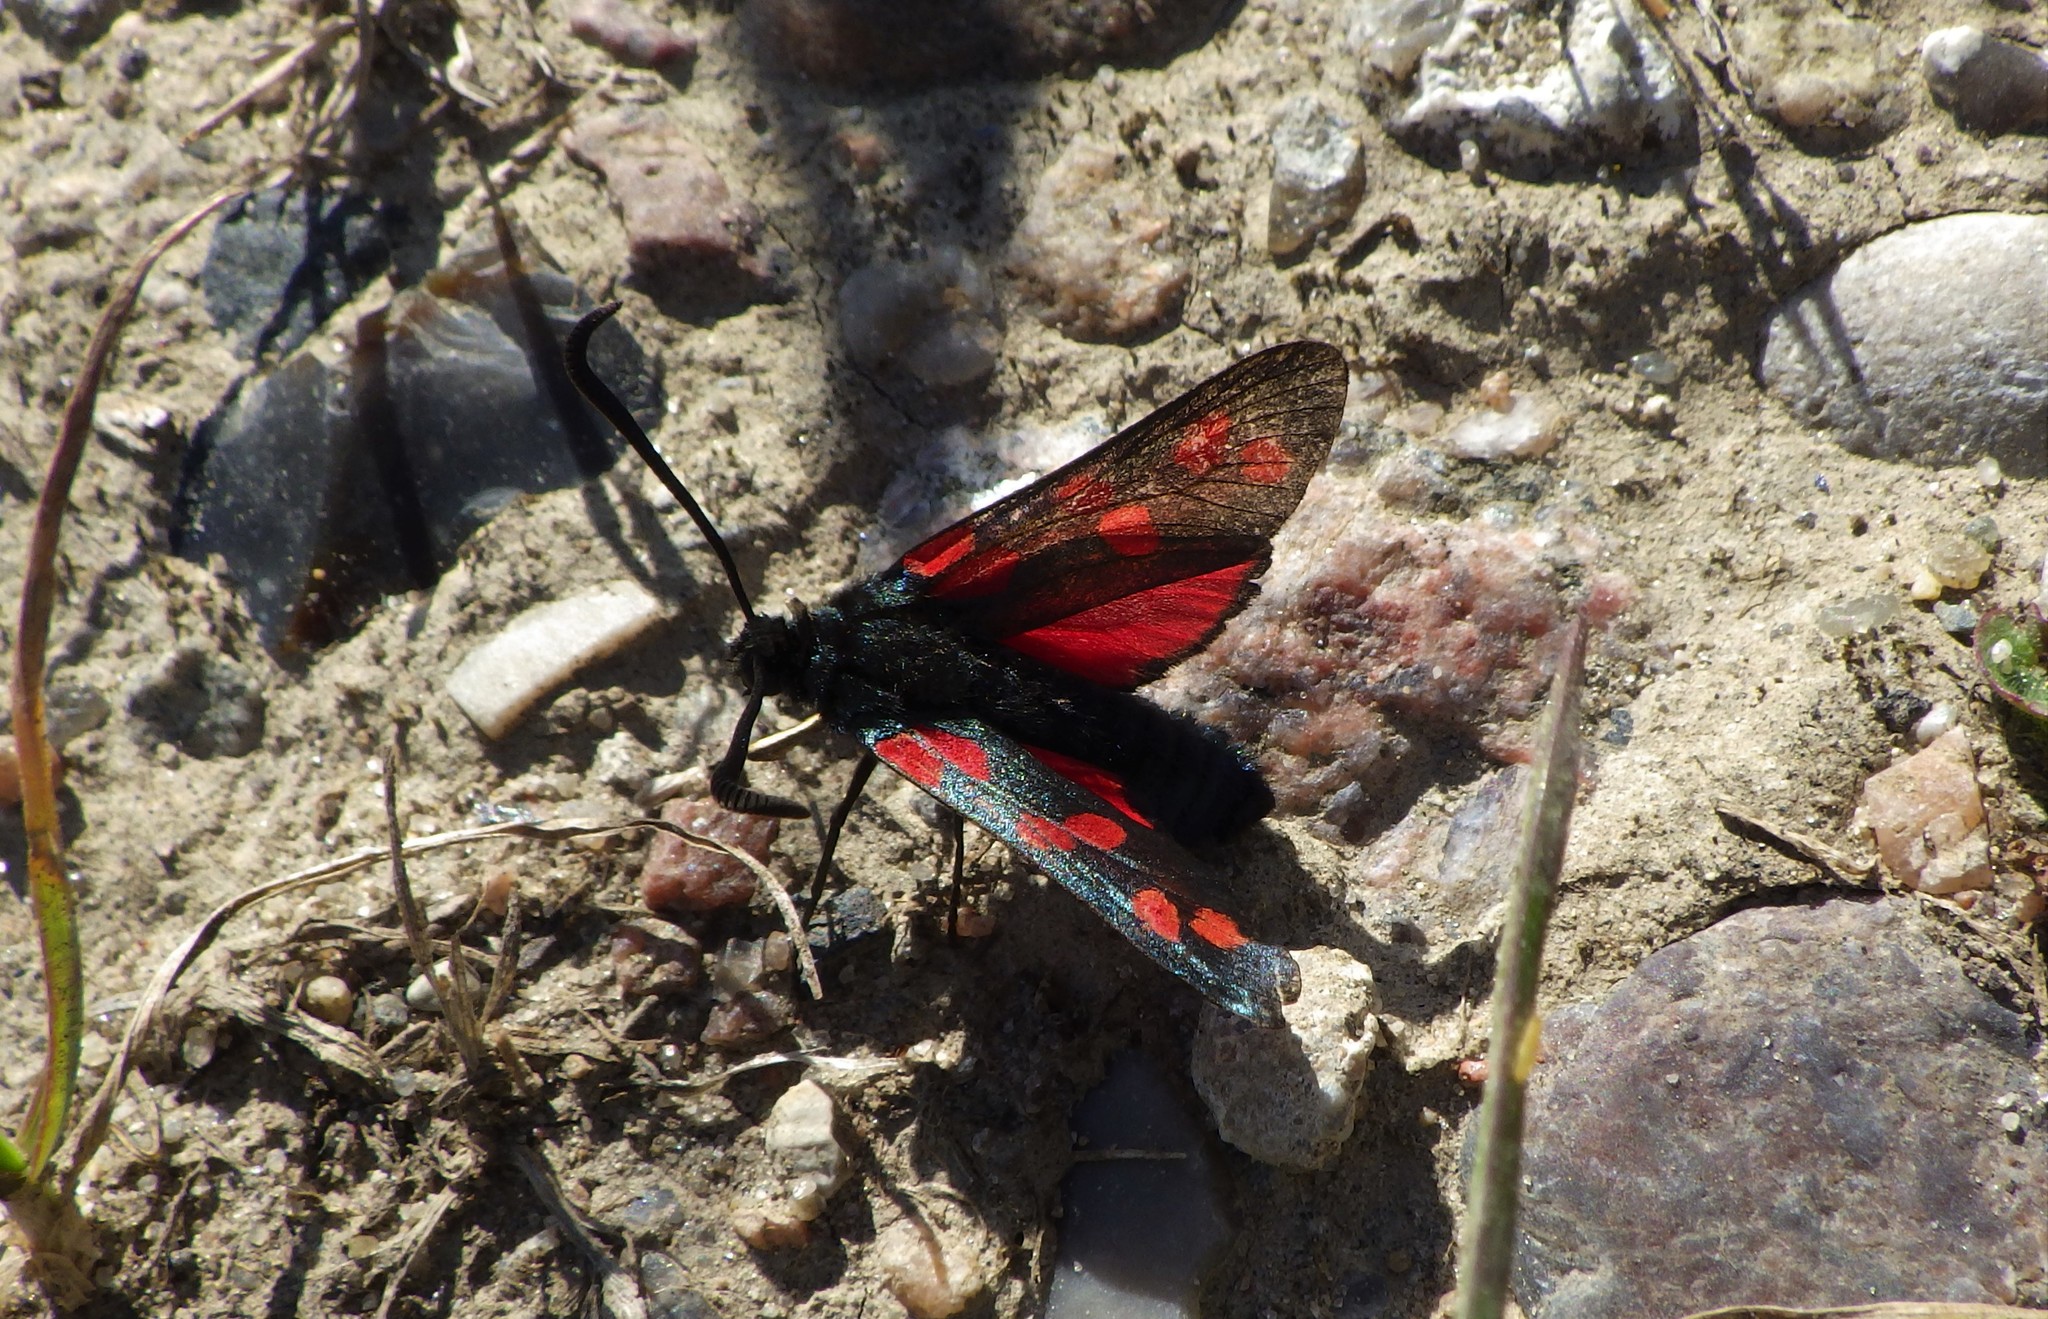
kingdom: Animalia
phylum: Arthropoda
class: Insecta
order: Lepidoptera
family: Zygaenidae
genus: Zygaena
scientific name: Zygaena filipendulae
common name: Six-spot burnet
